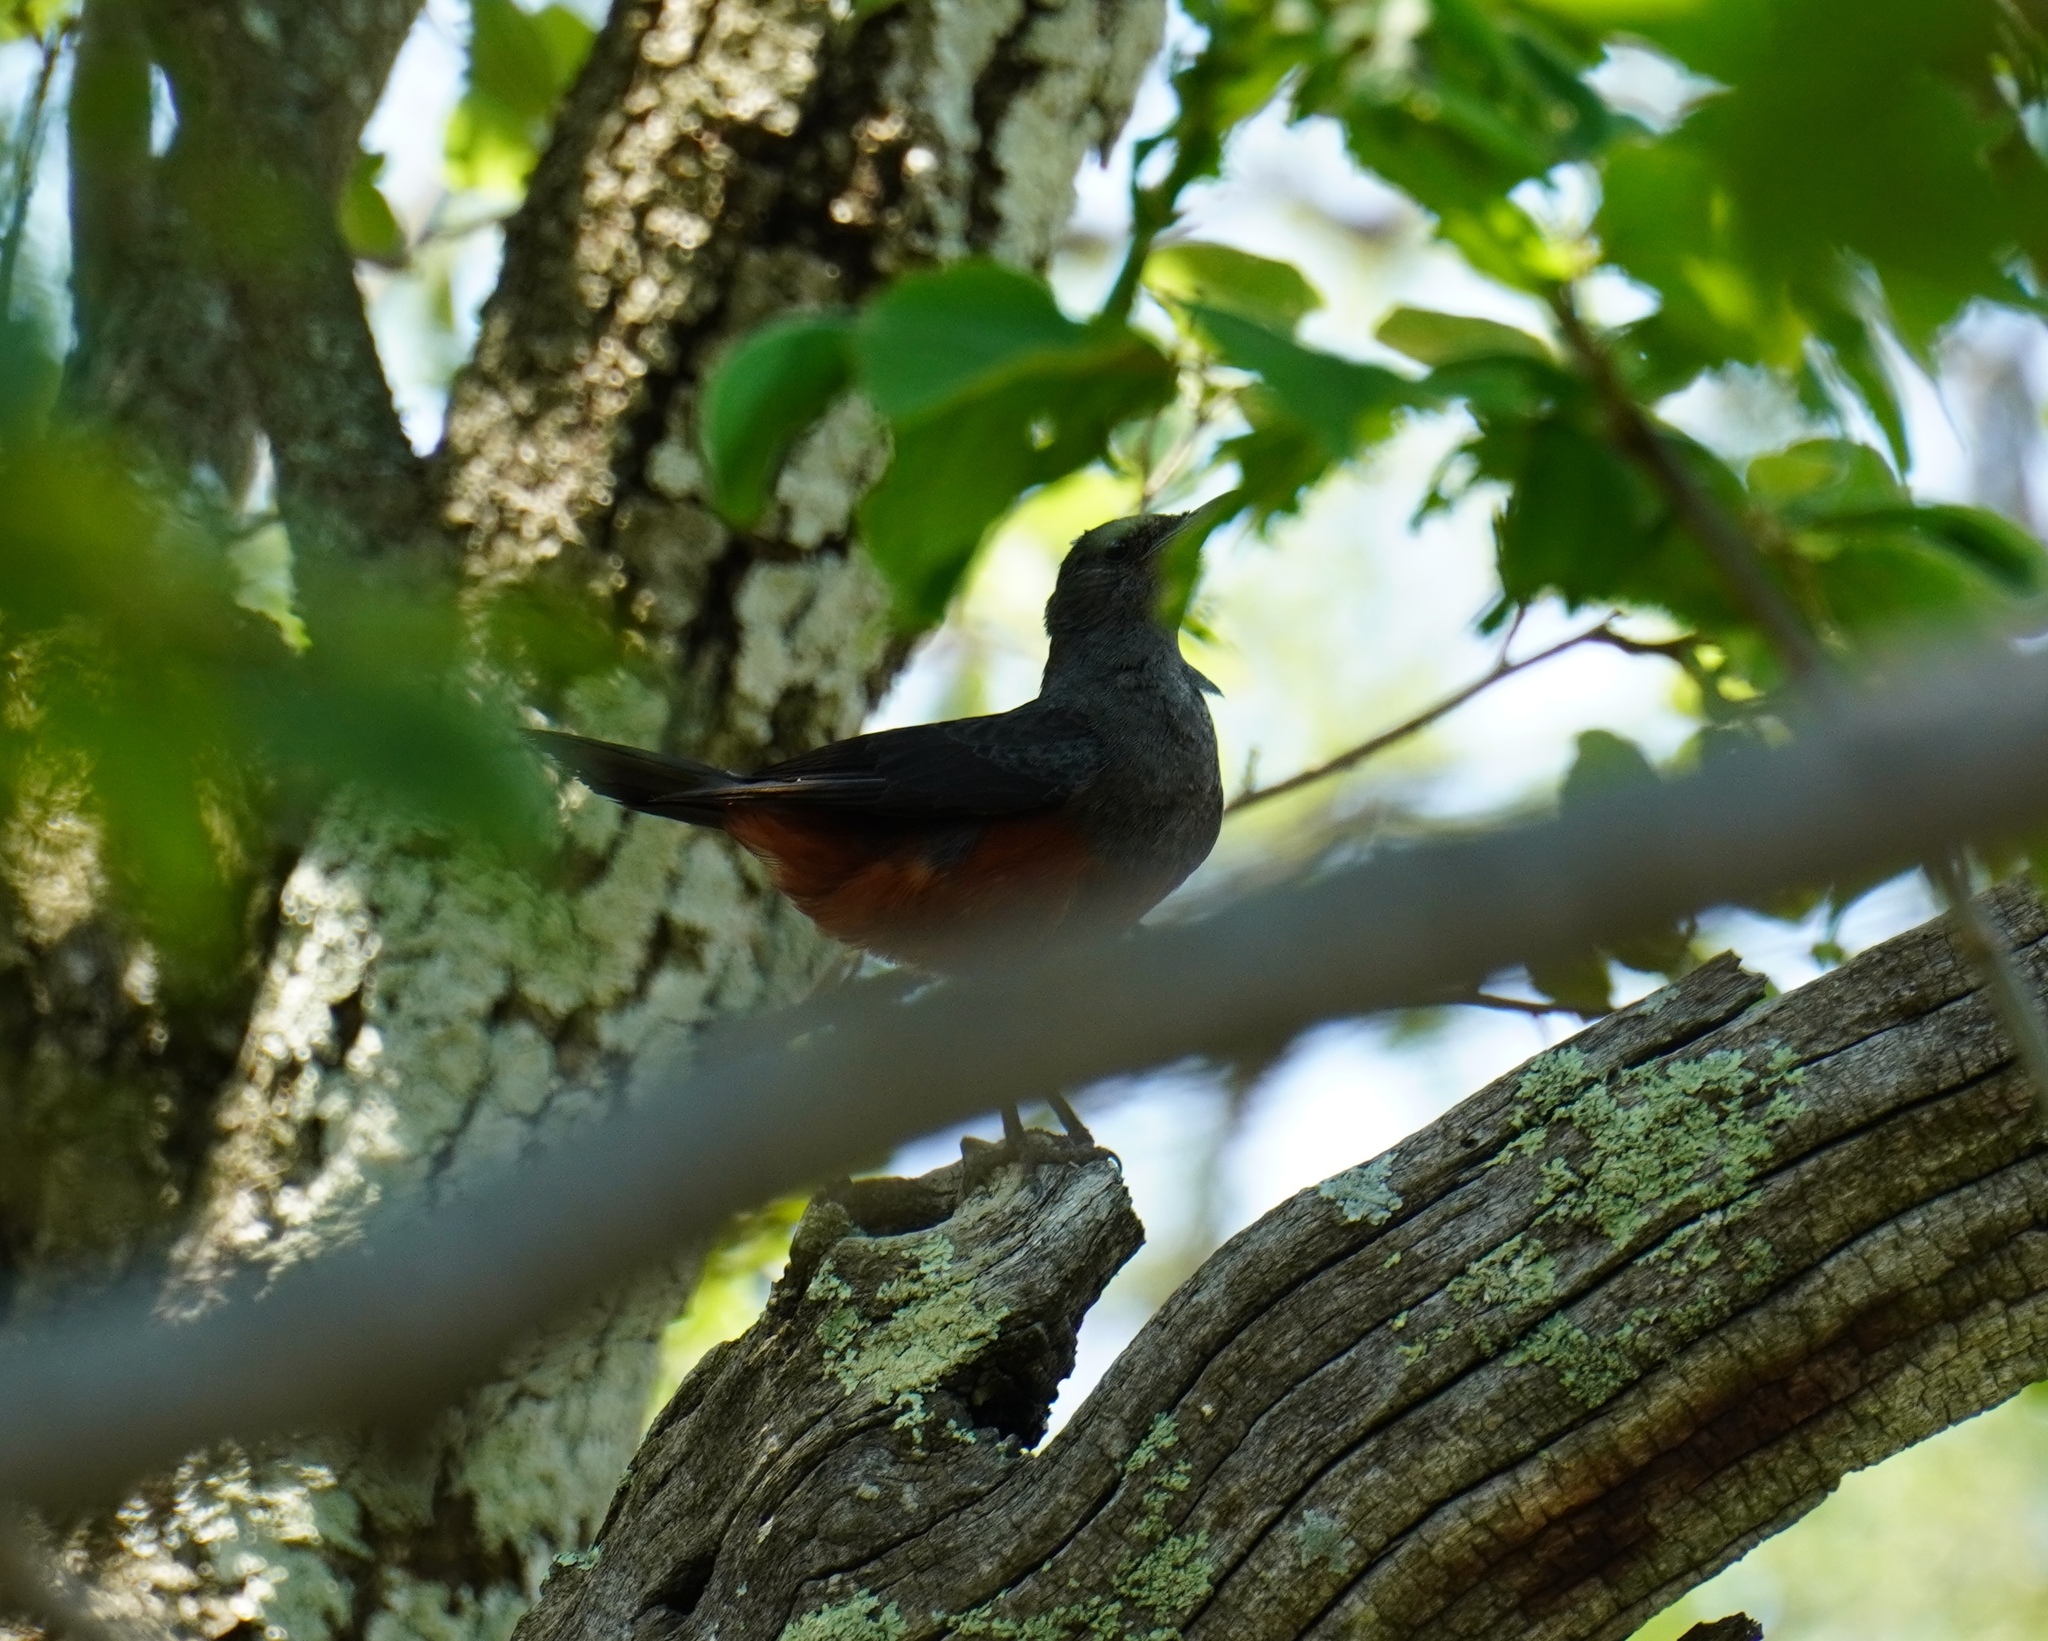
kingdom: Animalia
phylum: Chordata
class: Aves
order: Passeriformes
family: Muscicapidae
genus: Thamnolaea
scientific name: Thamnolaea cinnamomeiventris
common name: Mocking cliff chat
